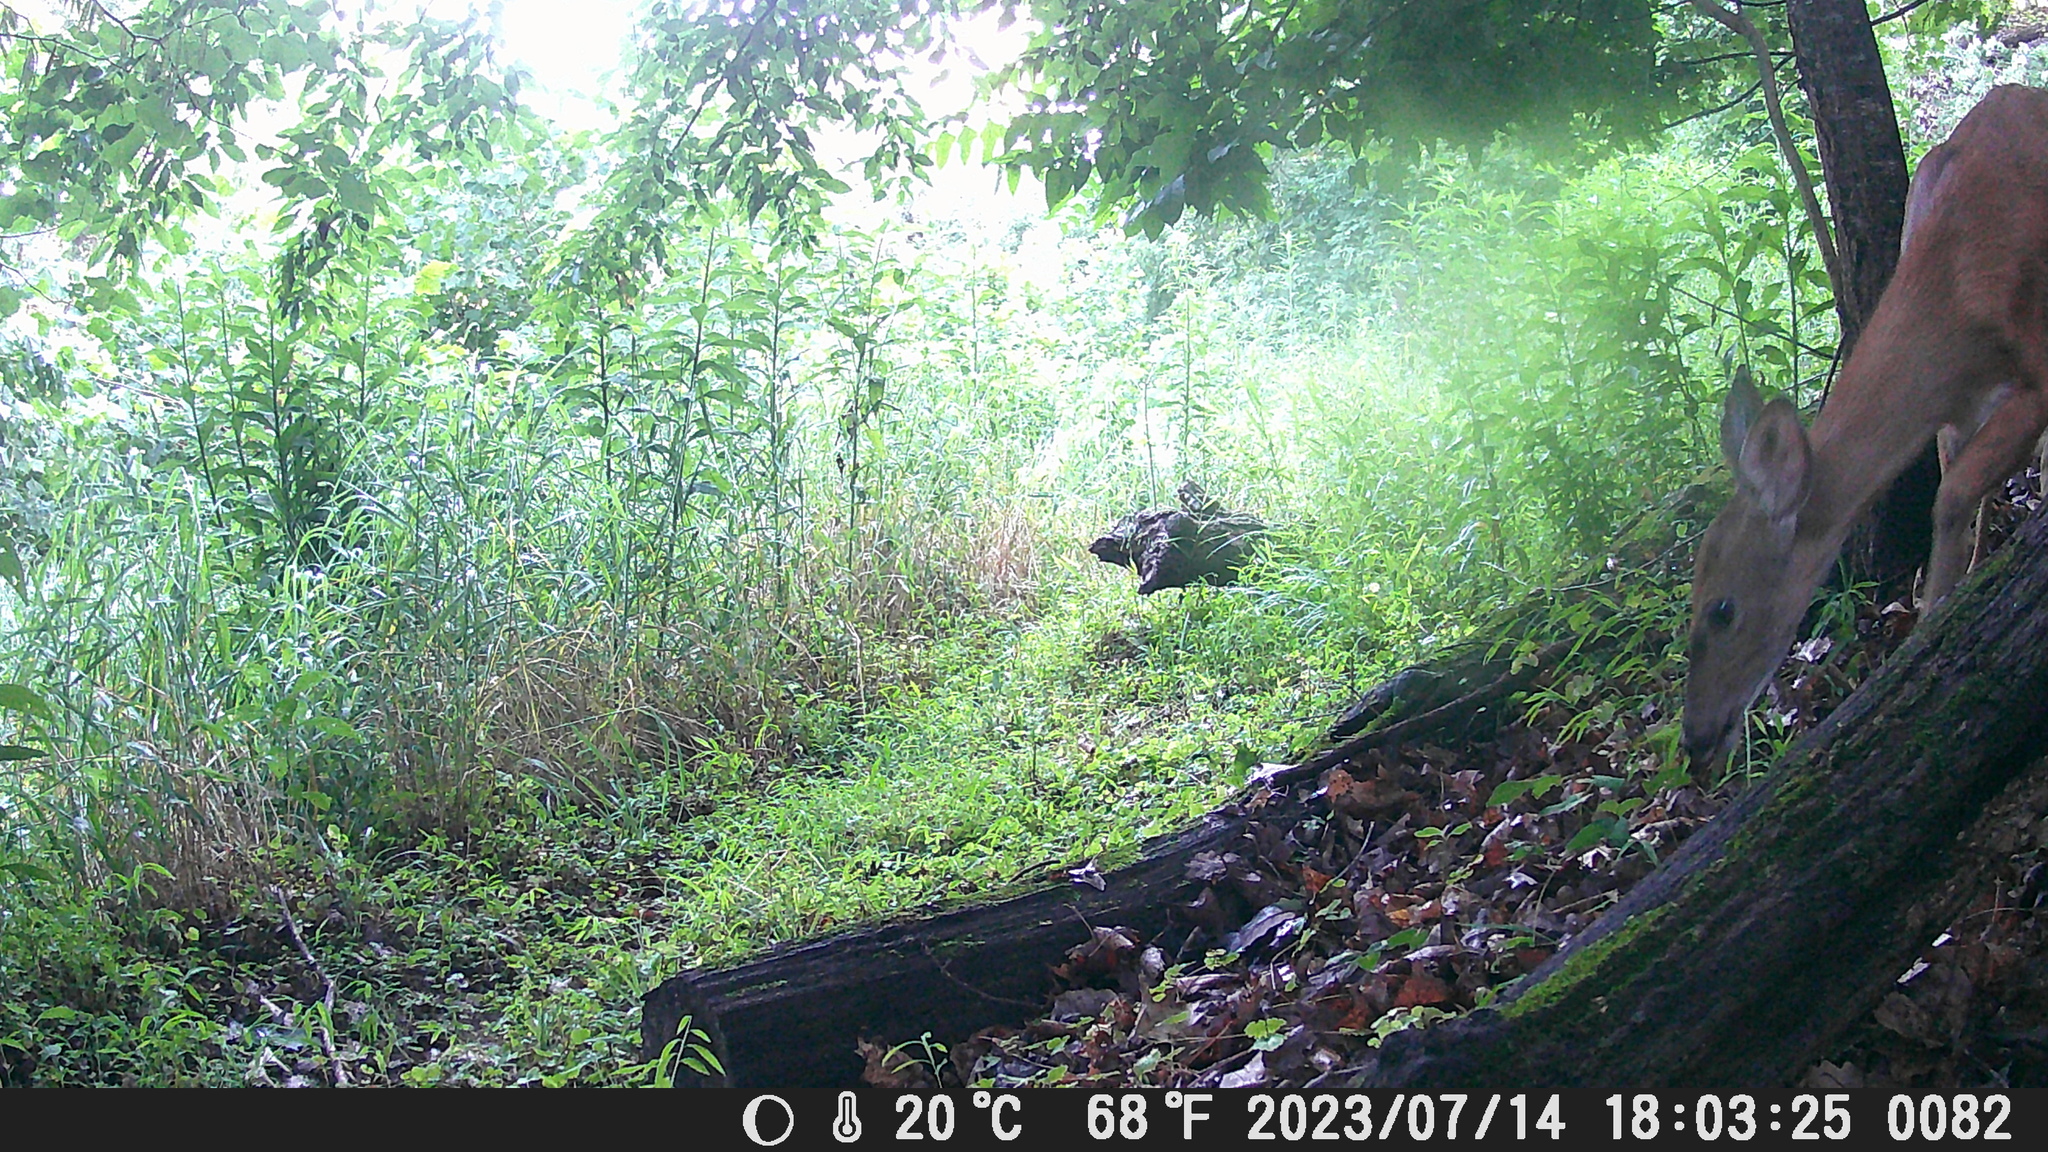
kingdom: Animalia
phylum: Chordata
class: Mammalia
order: Artiodactyla
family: Cervidae
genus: Odocoileus
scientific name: Odocoileus virginianus
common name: White-tailed deer
